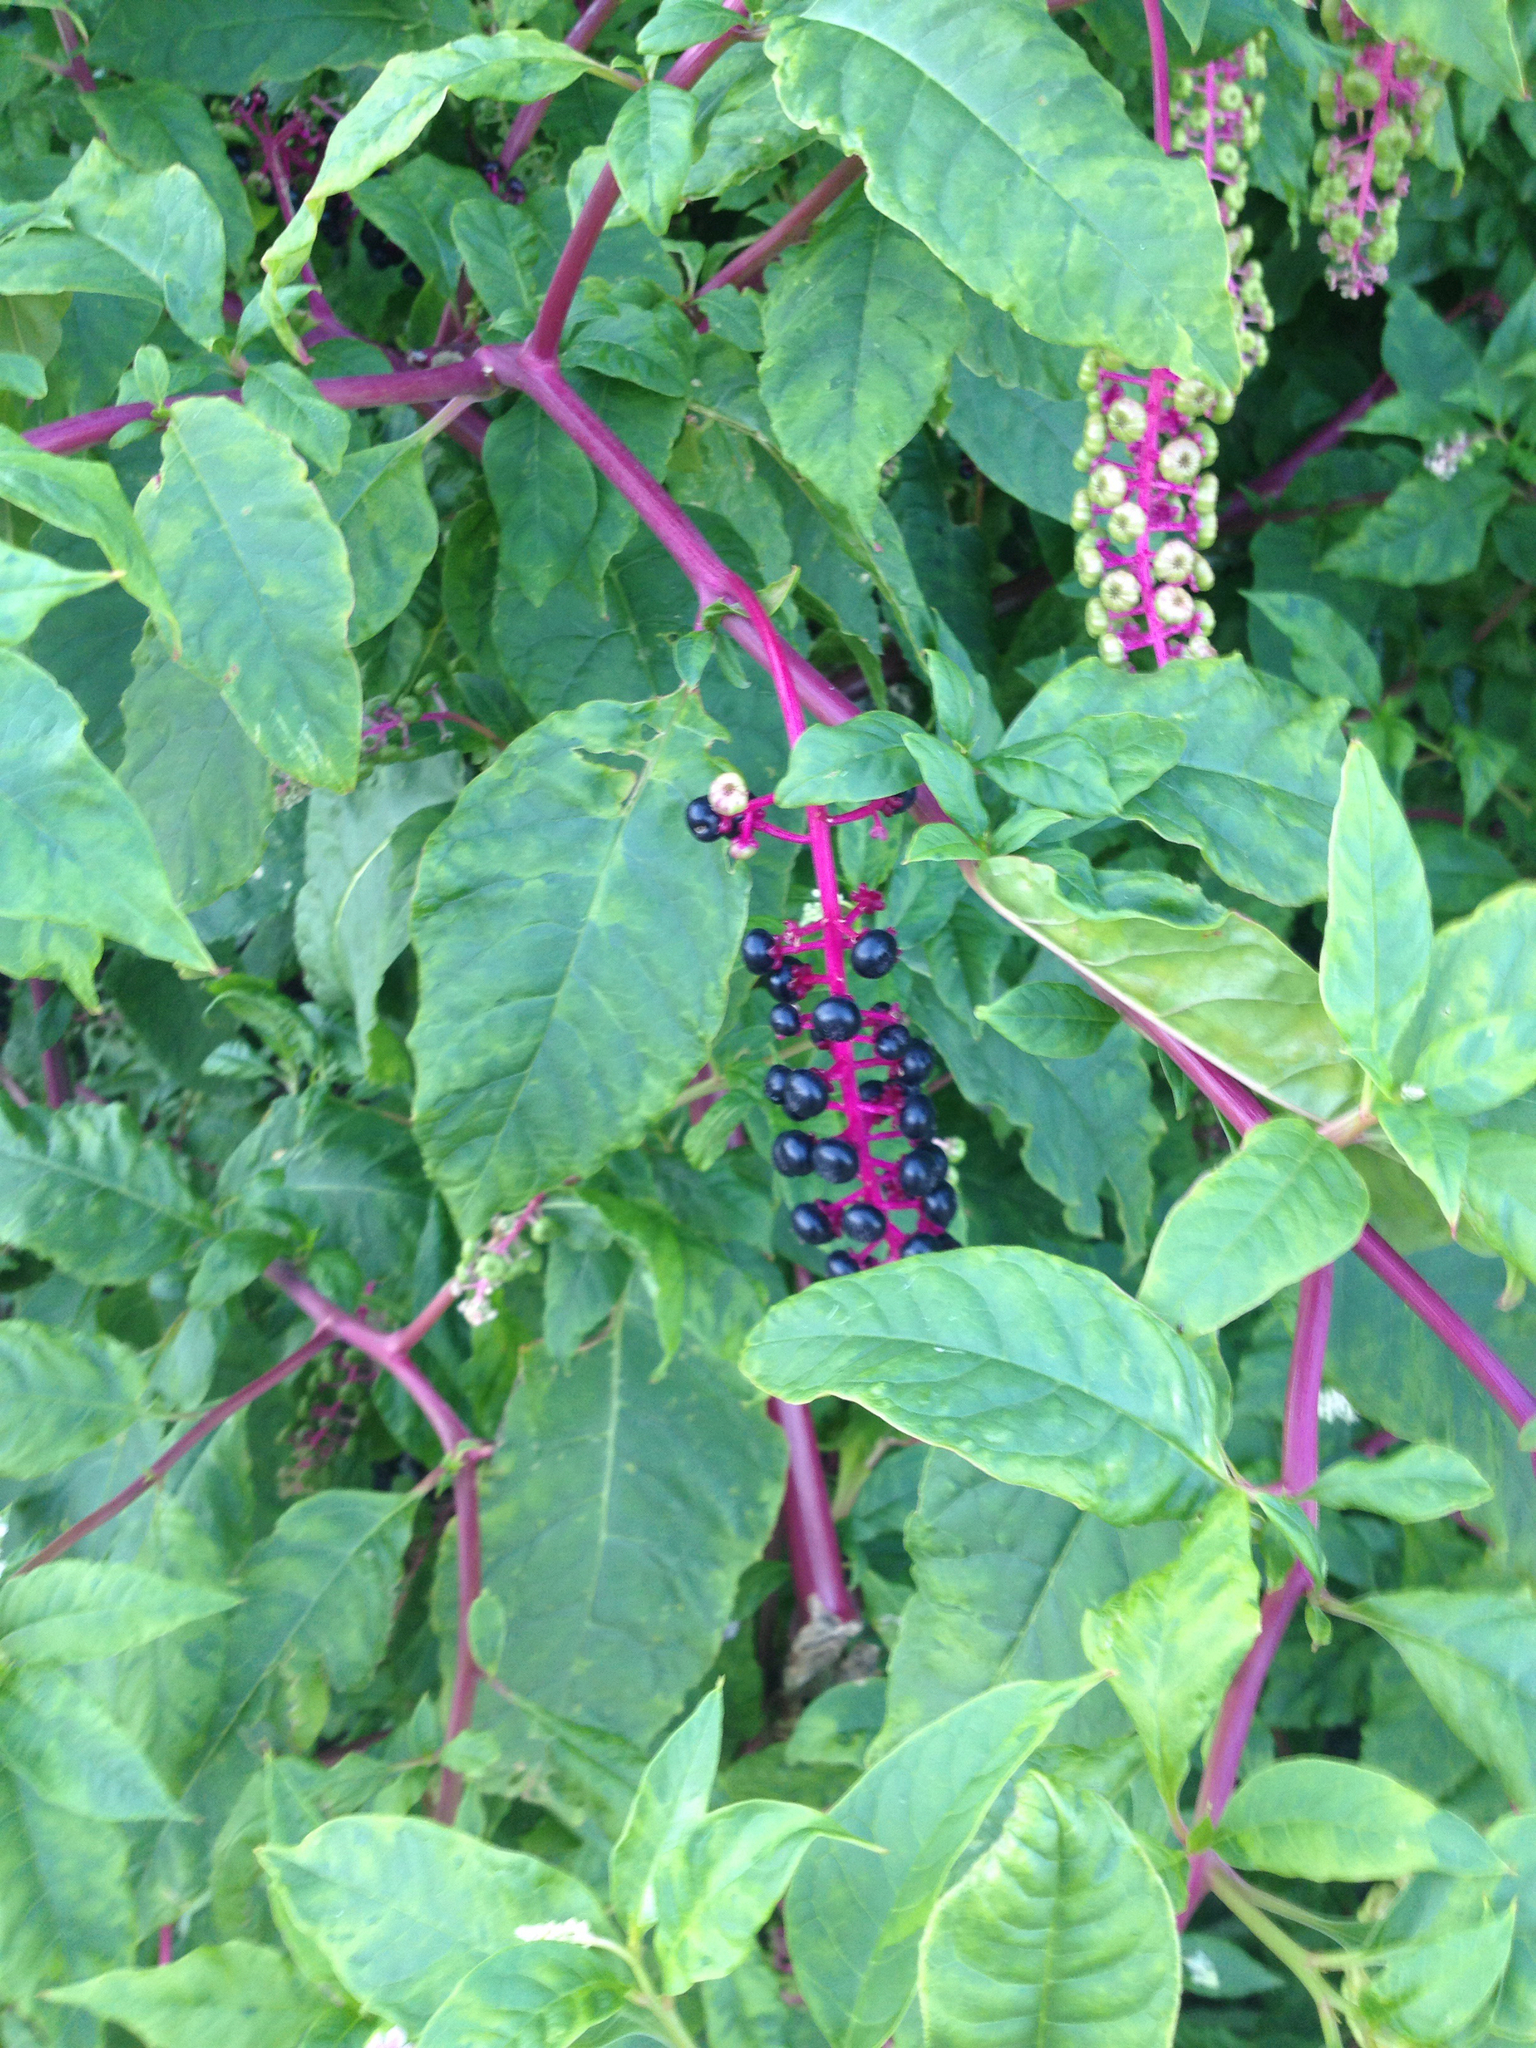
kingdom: Plantae
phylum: Tracheophyta
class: Magnoliopsida
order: Caryophyllales
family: Phytolaccaceae
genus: Phytolacca
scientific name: Phytolacca americana
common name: American pokeweed
